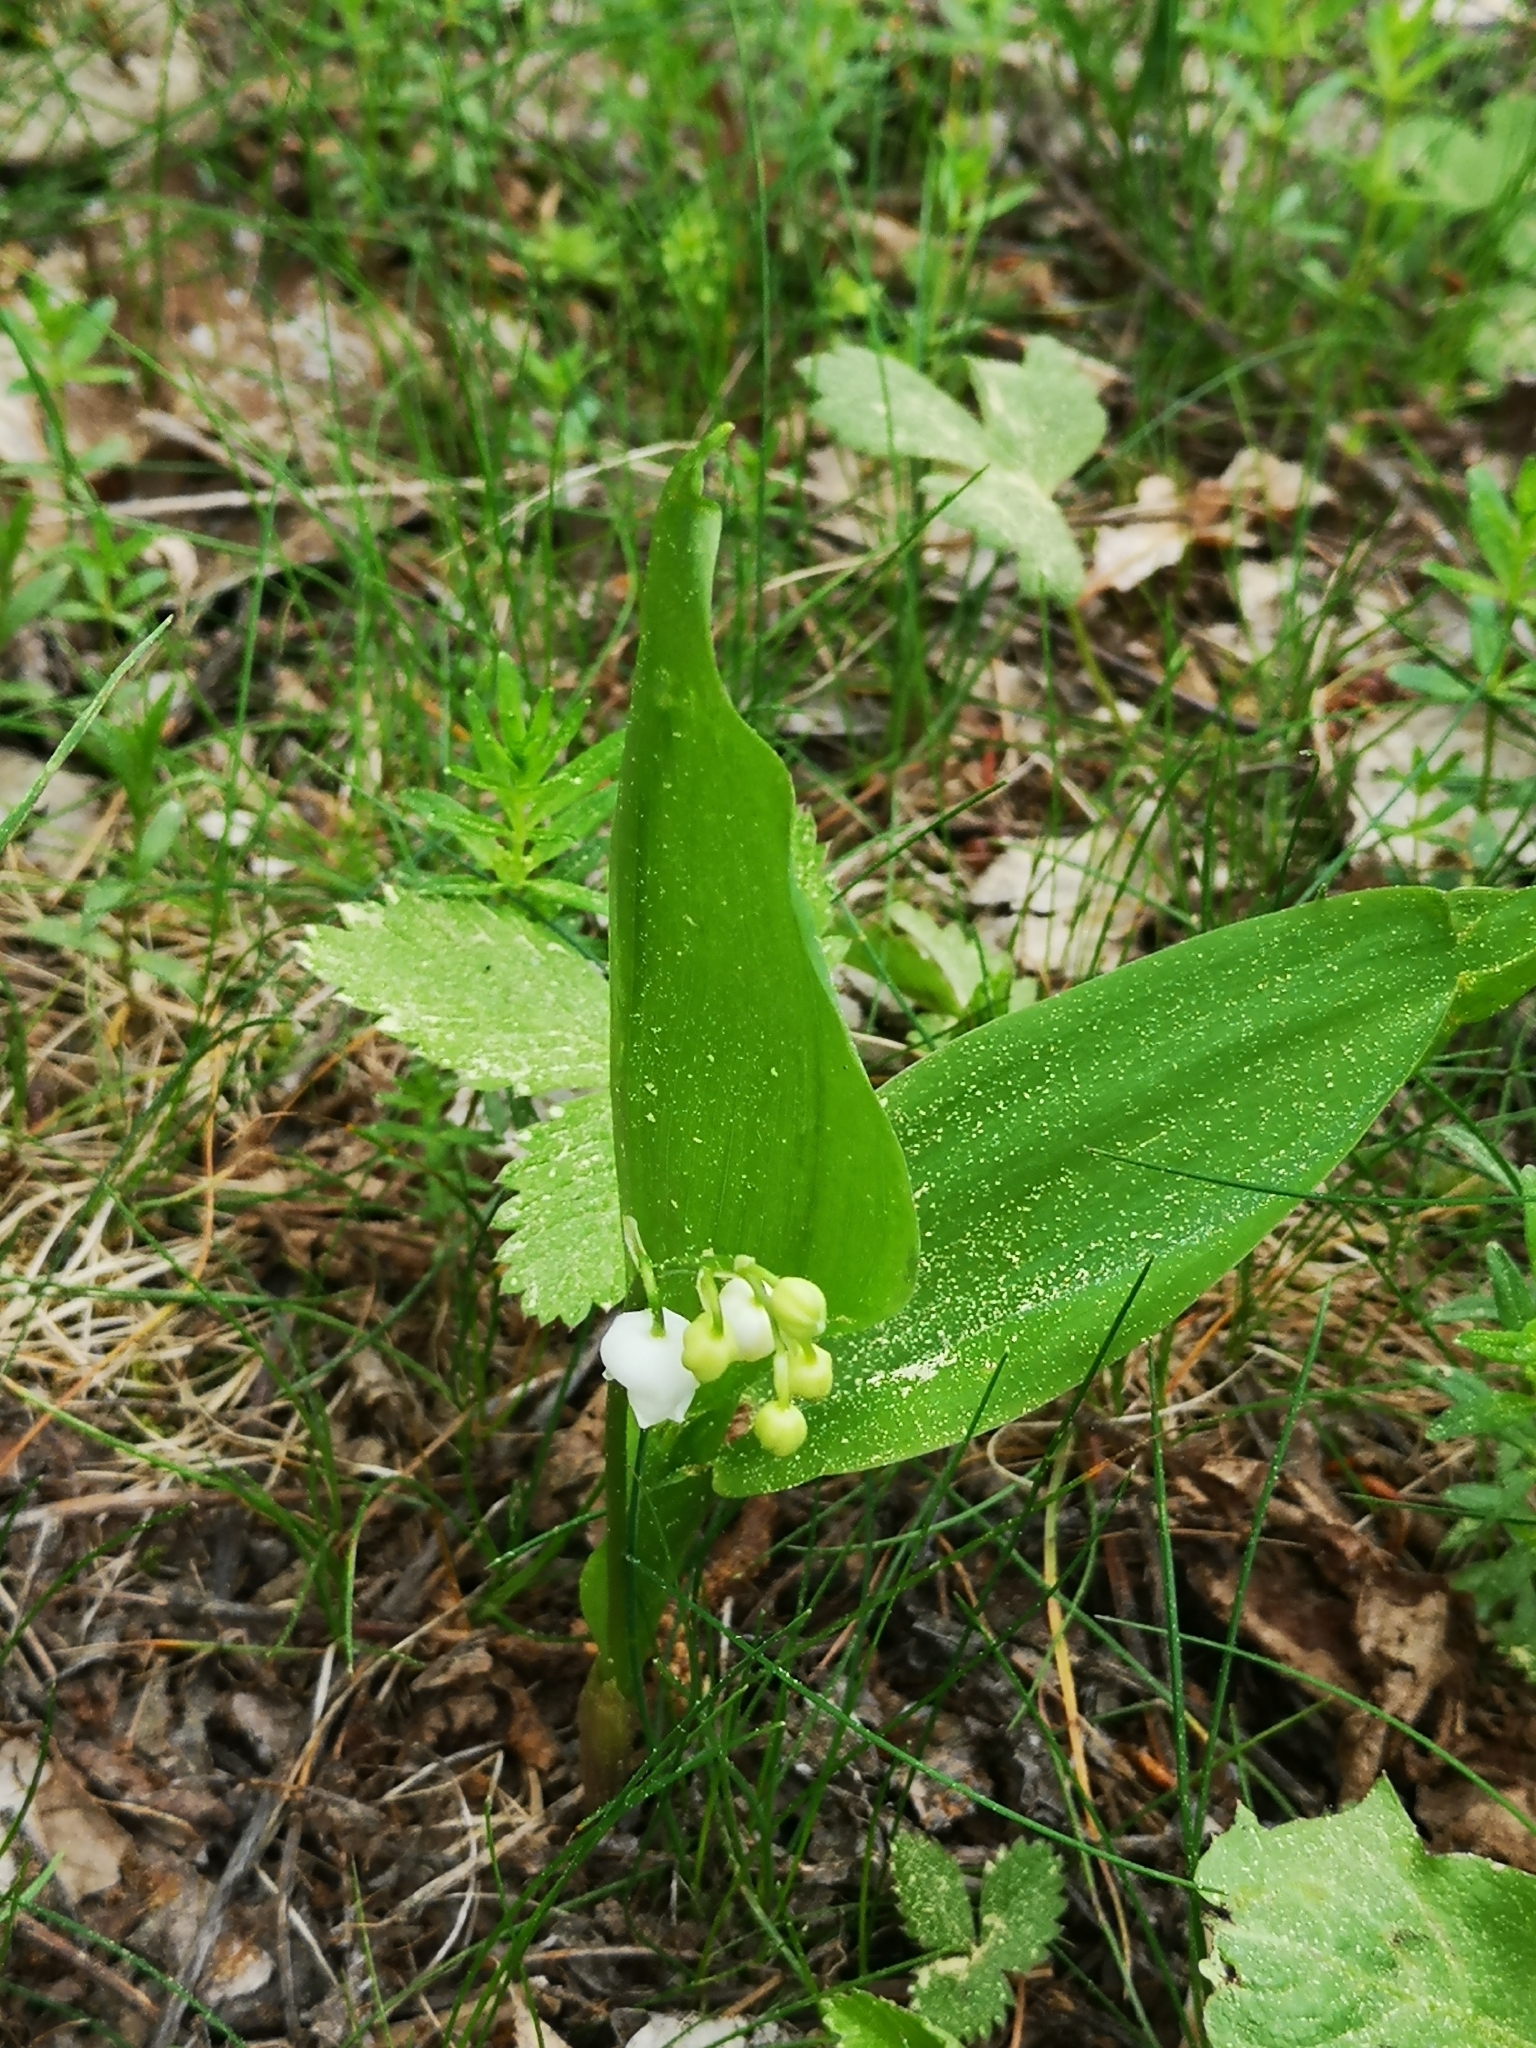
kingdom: Plantae
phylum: Tracheophyta
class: Liliopsida
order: Asparagales
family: Asparagaceae
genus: Convallaria
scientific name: Convallaria majalis
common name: Lily-of-the-valley
